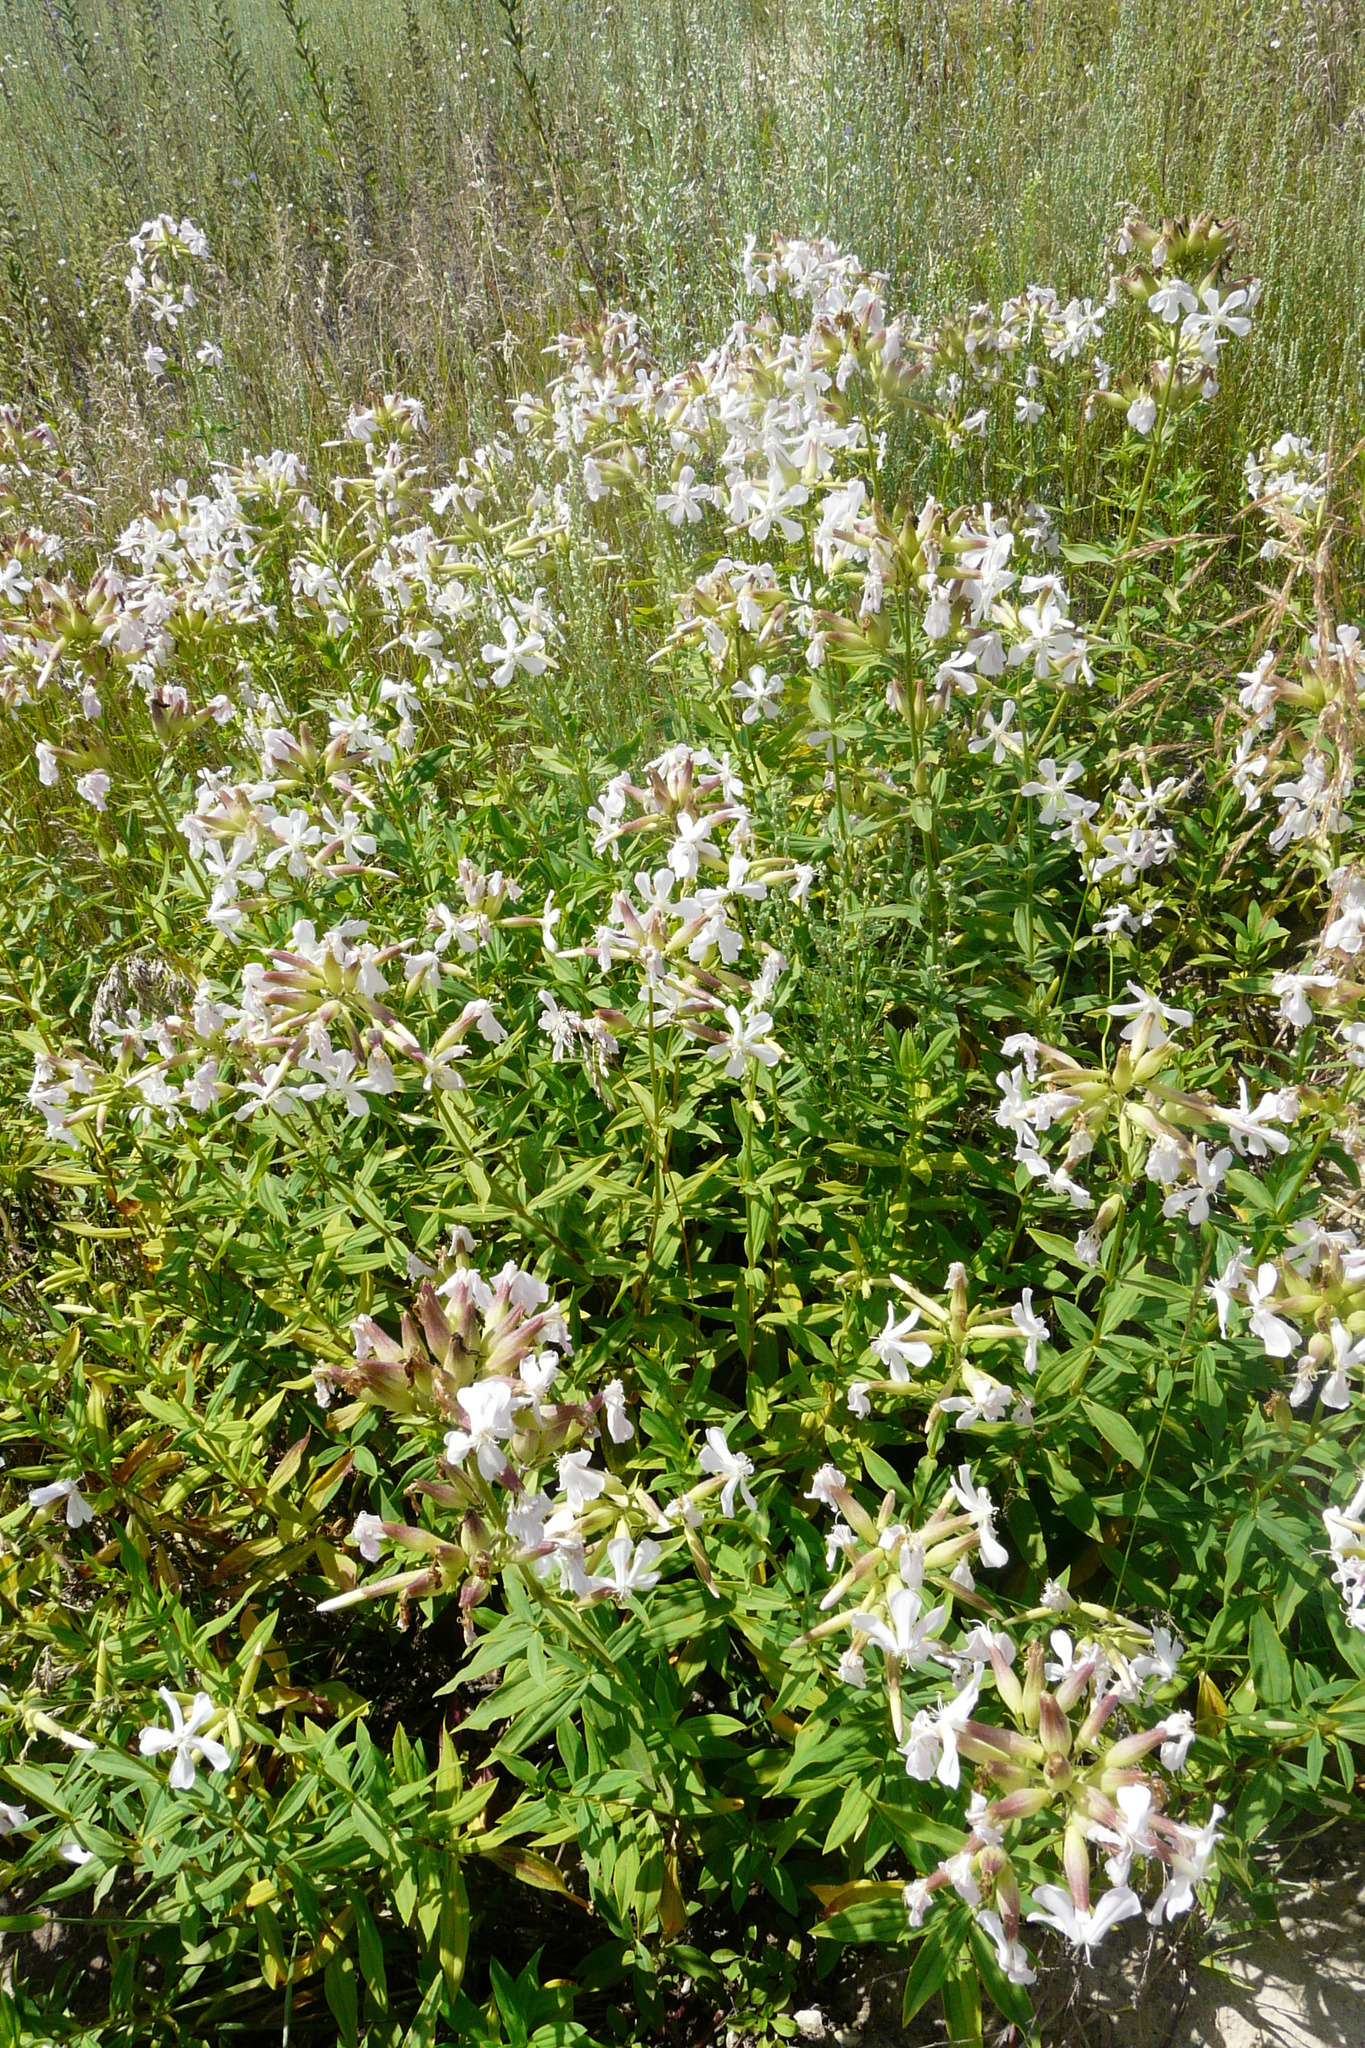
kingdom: Plantae
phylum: Tracheophyta
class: Magnoliopsida
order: Caryophyllales
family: Caryophyllaceae
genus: Saponaria
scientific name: Saponaria officinalis
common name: Soapwort
